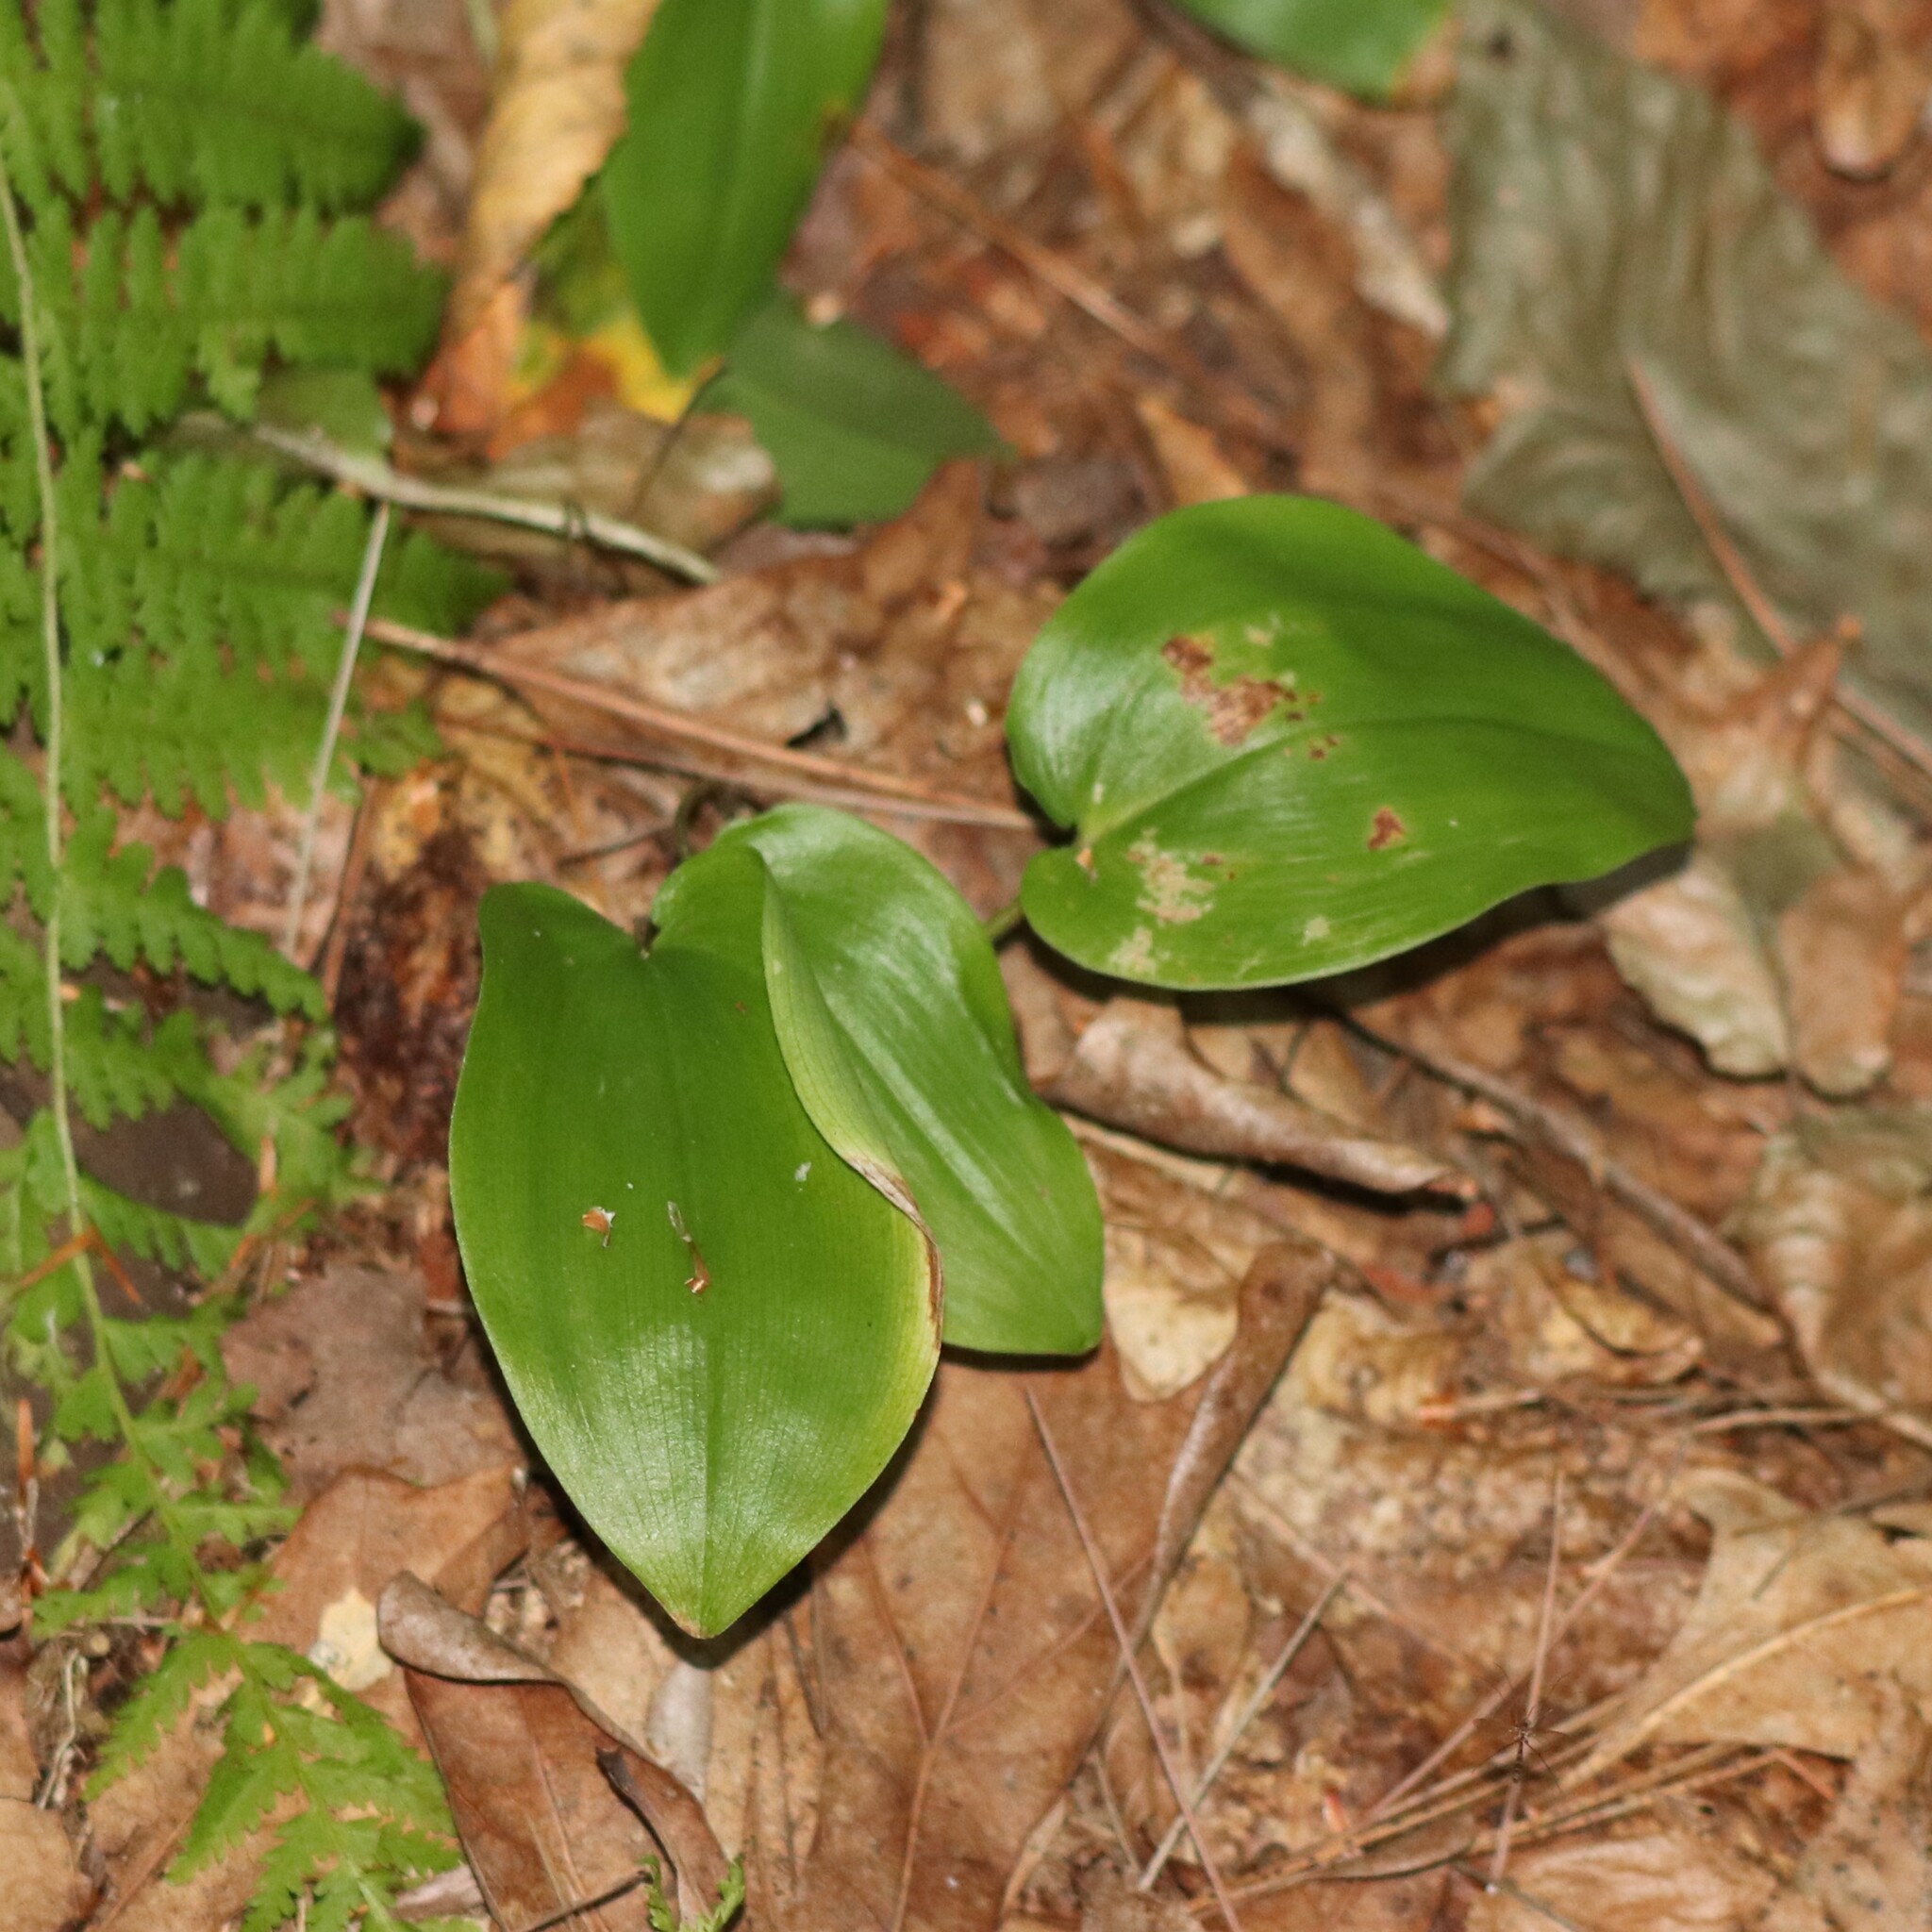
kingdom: Plantae
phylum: Tracheophyta
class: Liliopsida
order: Asparagales
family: Asparagaceae
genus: Maianthemum
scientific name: Maianthemum canadense
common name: False lily-of-the-valley
